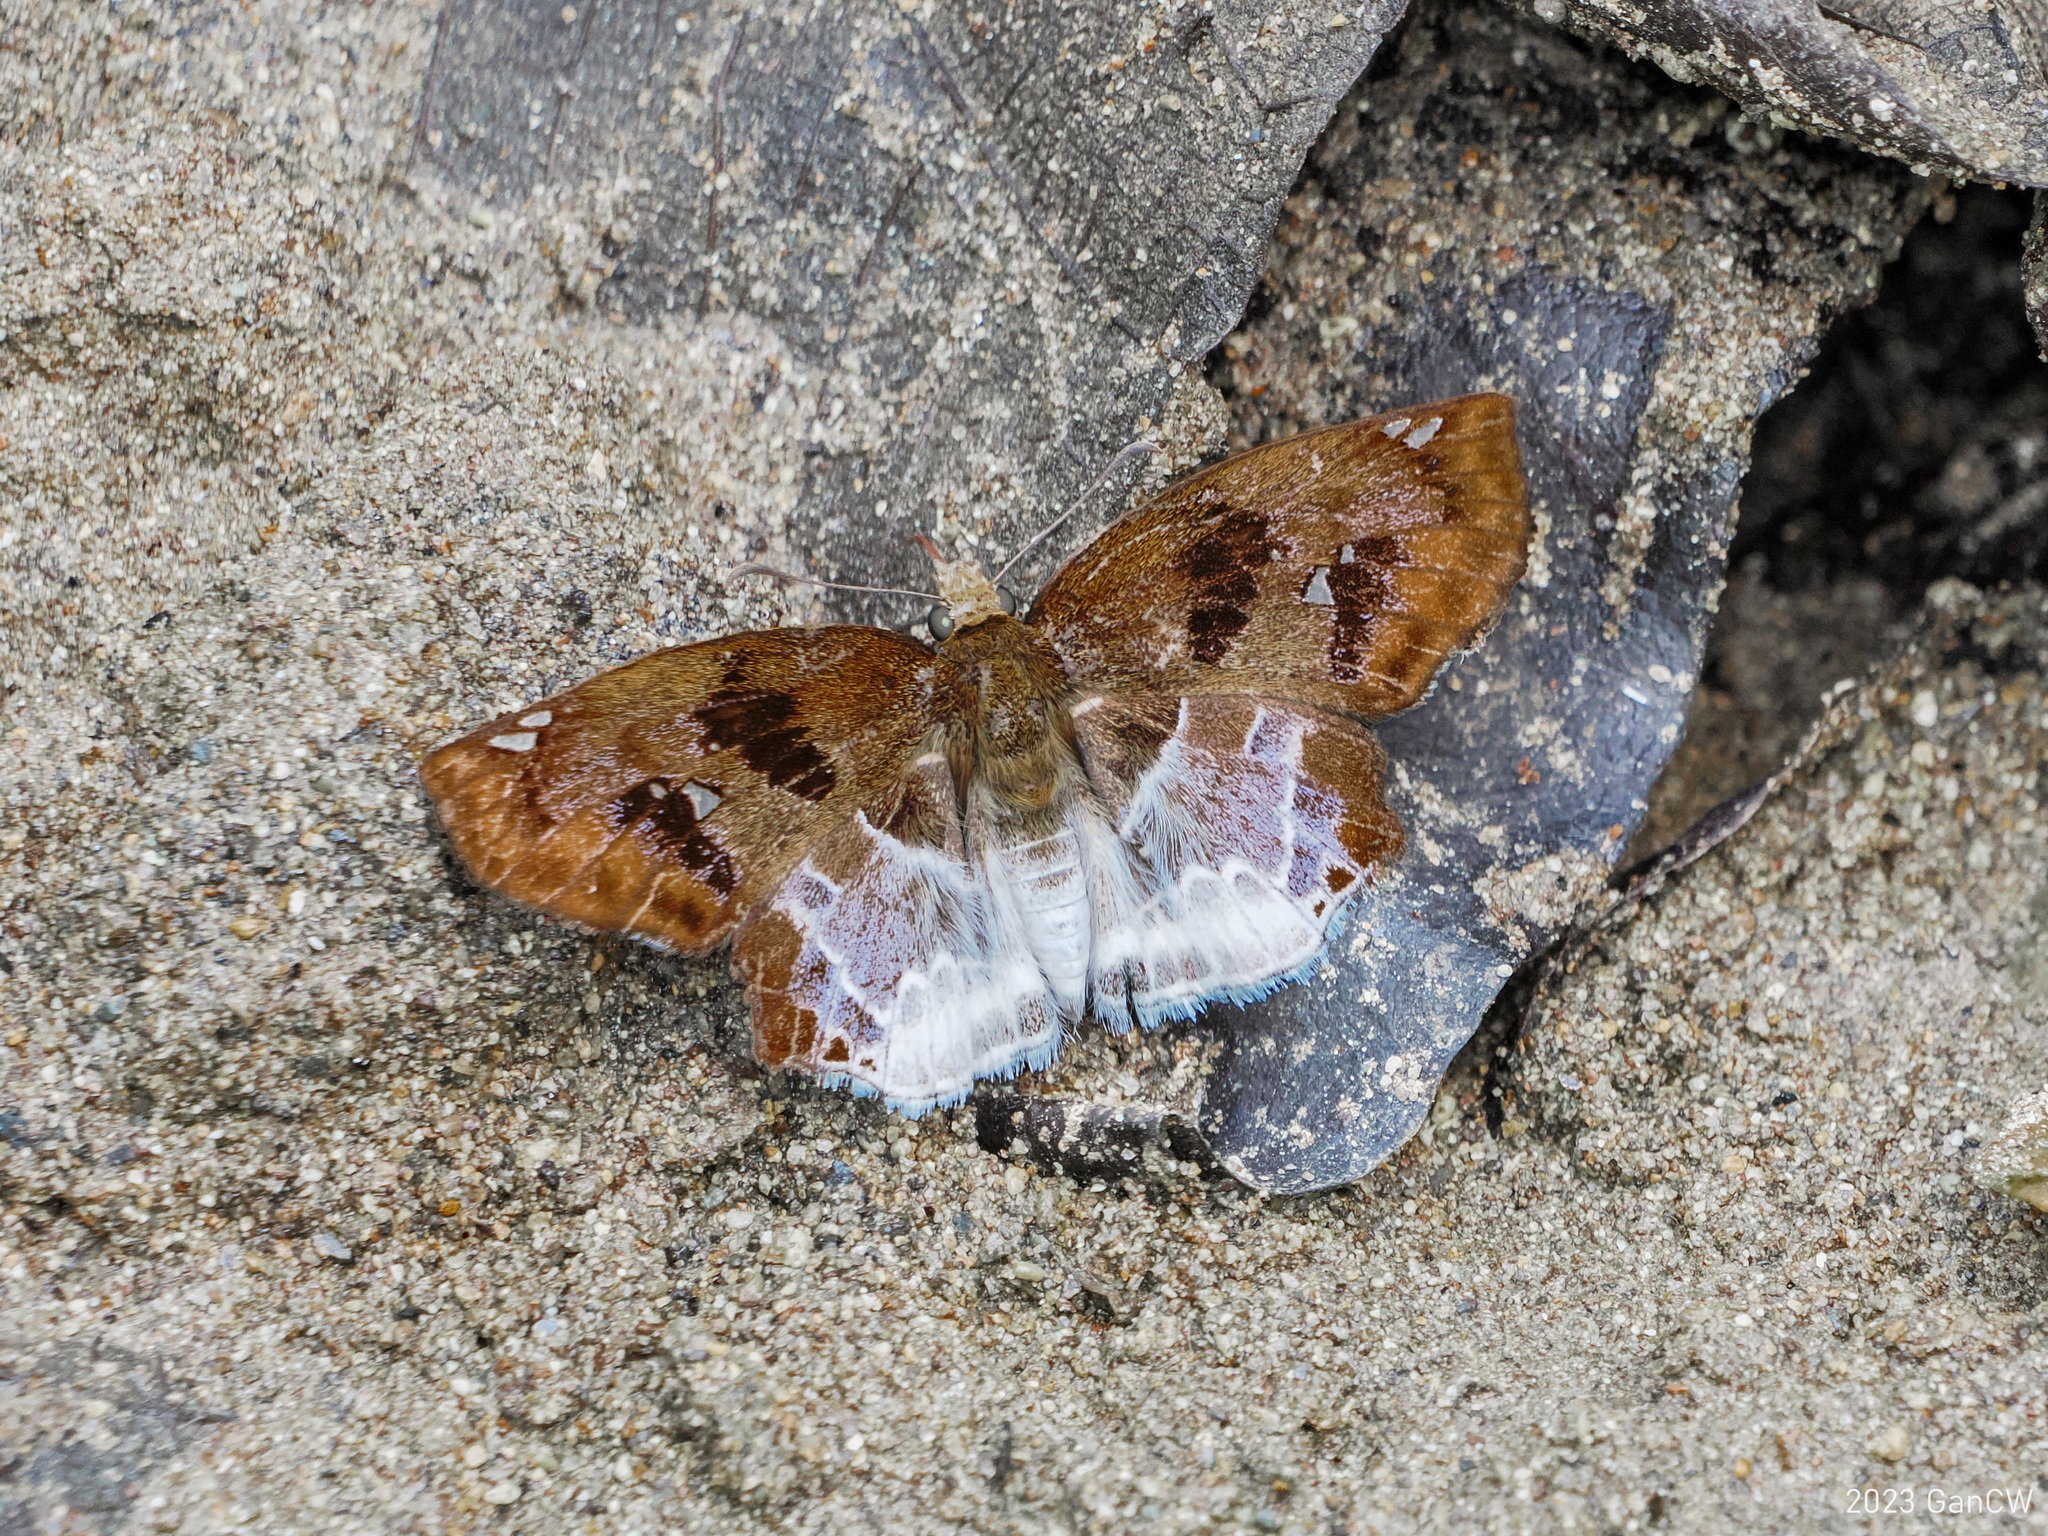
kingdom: Animalia
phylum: Arthropoda
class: Insecta
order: Lepidoptera
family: Hesperiidae
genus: Odontoptilum
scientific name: Odontoptilum angulata
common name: Chestnut banded angle
